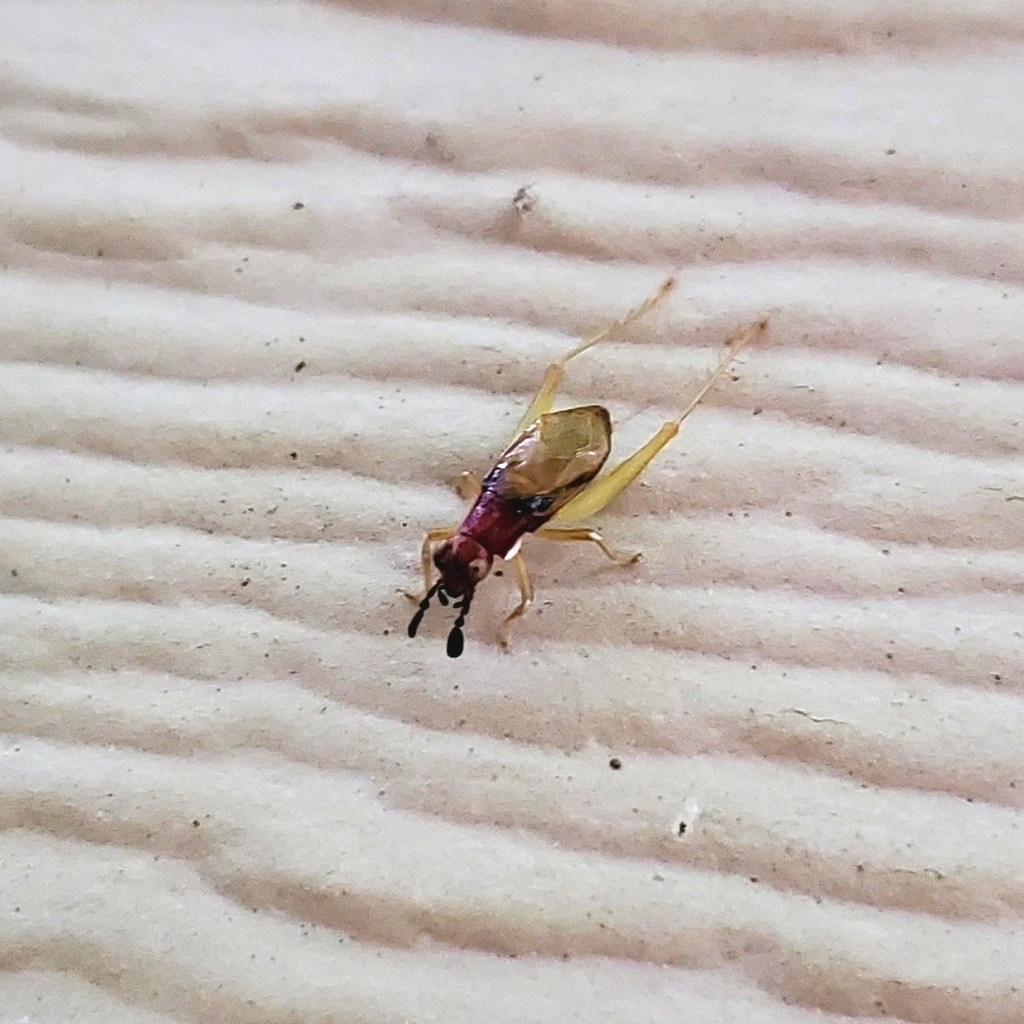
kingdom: Animalia
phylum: Arthropoda
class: Insecta
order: Orthoptera
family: Trigonidiidae
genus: Phyllopalpus
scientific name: Phyllopalpus pulchellus
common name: Handsome trig
